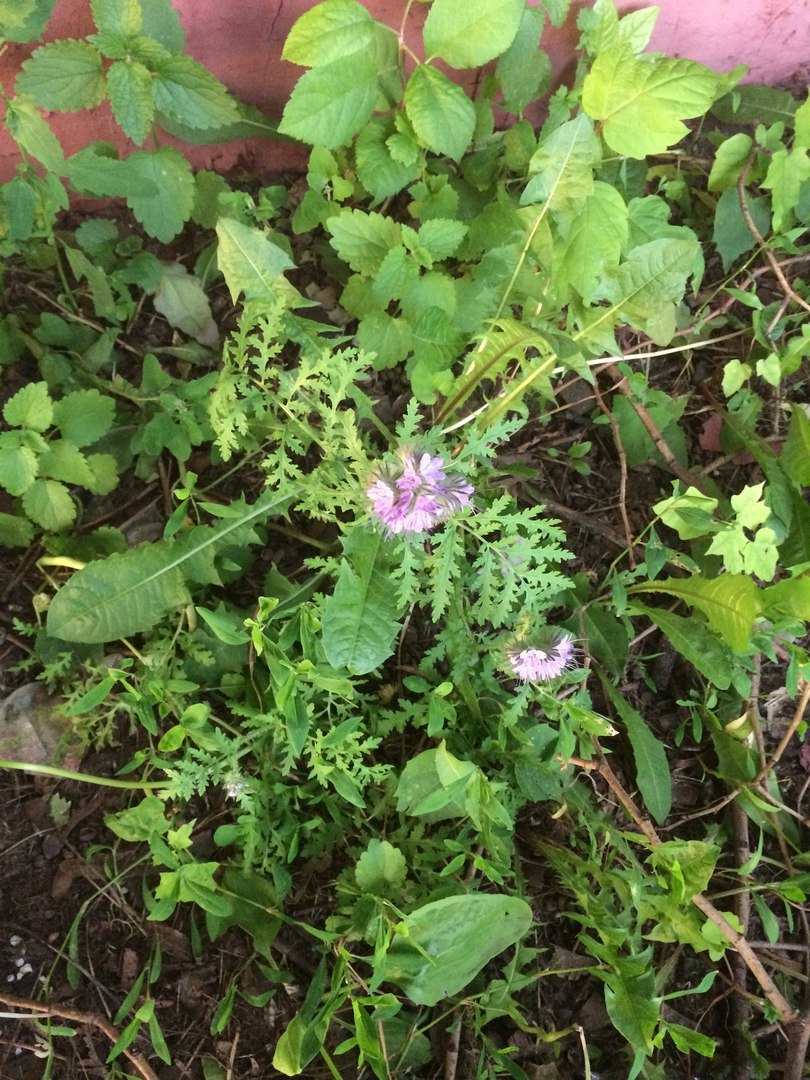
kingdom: Plantae
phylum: Tracheophyta
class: Magnoliopsida
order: Boraginales
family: Hydrophyllaceae
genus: Phacelia
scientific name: Phacelia tanacetifolia
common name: Phacelia
